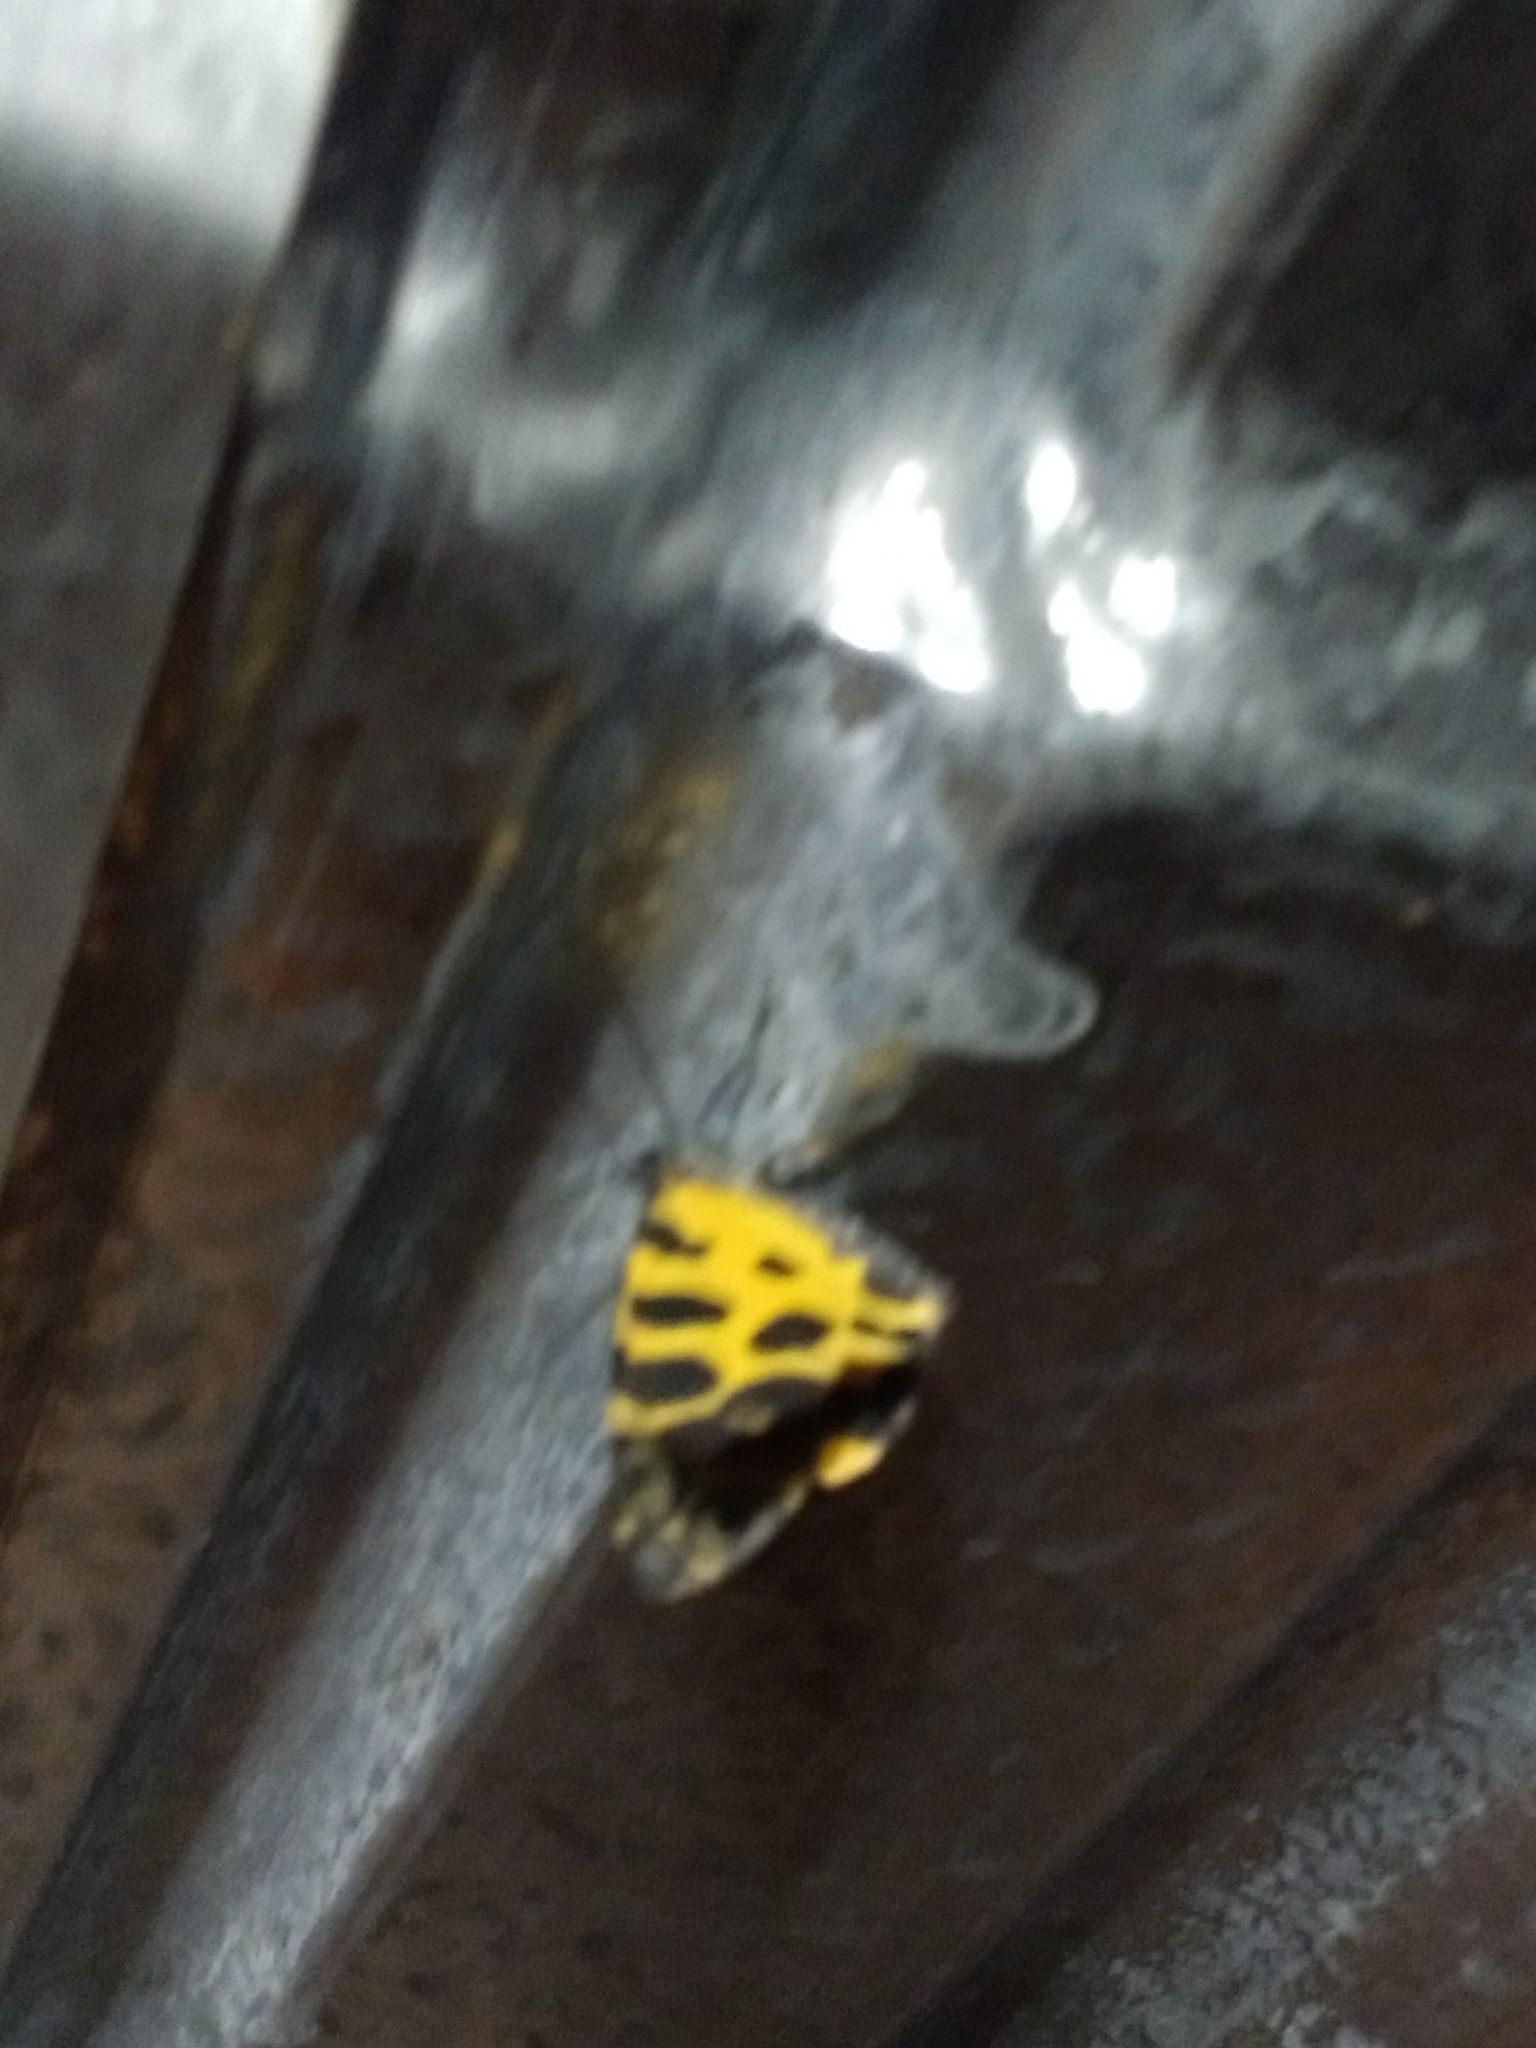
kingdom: Animalia
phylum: Arthropoda
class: Insecta
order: Lepidoptera
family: Geometridae
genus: Pantherodes
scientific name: Pantherodes pardalaria
